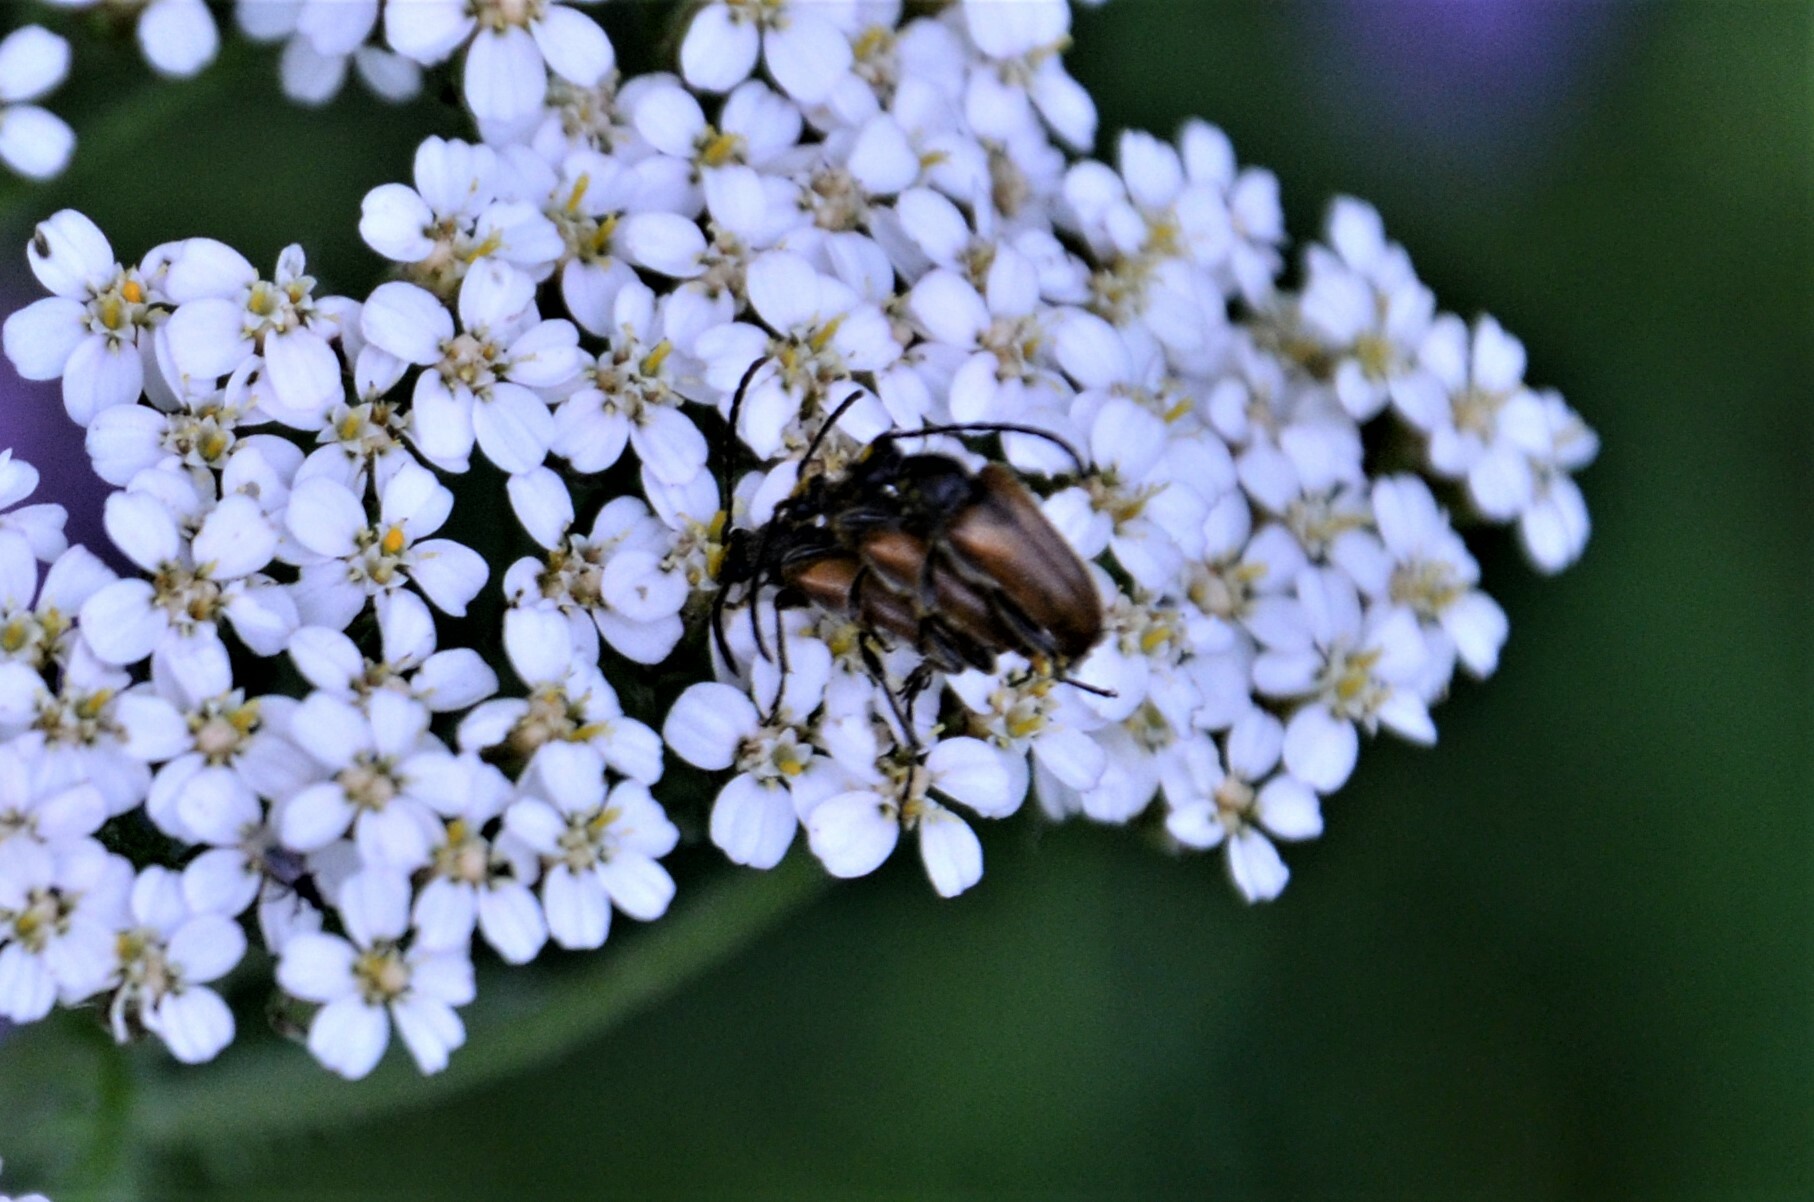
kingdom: Animalia
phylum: Arthropoda
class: Insecta
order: Coleoptera
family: Cerambycidae
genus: Pseudovadonia
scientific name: Pseudovadonia livida
